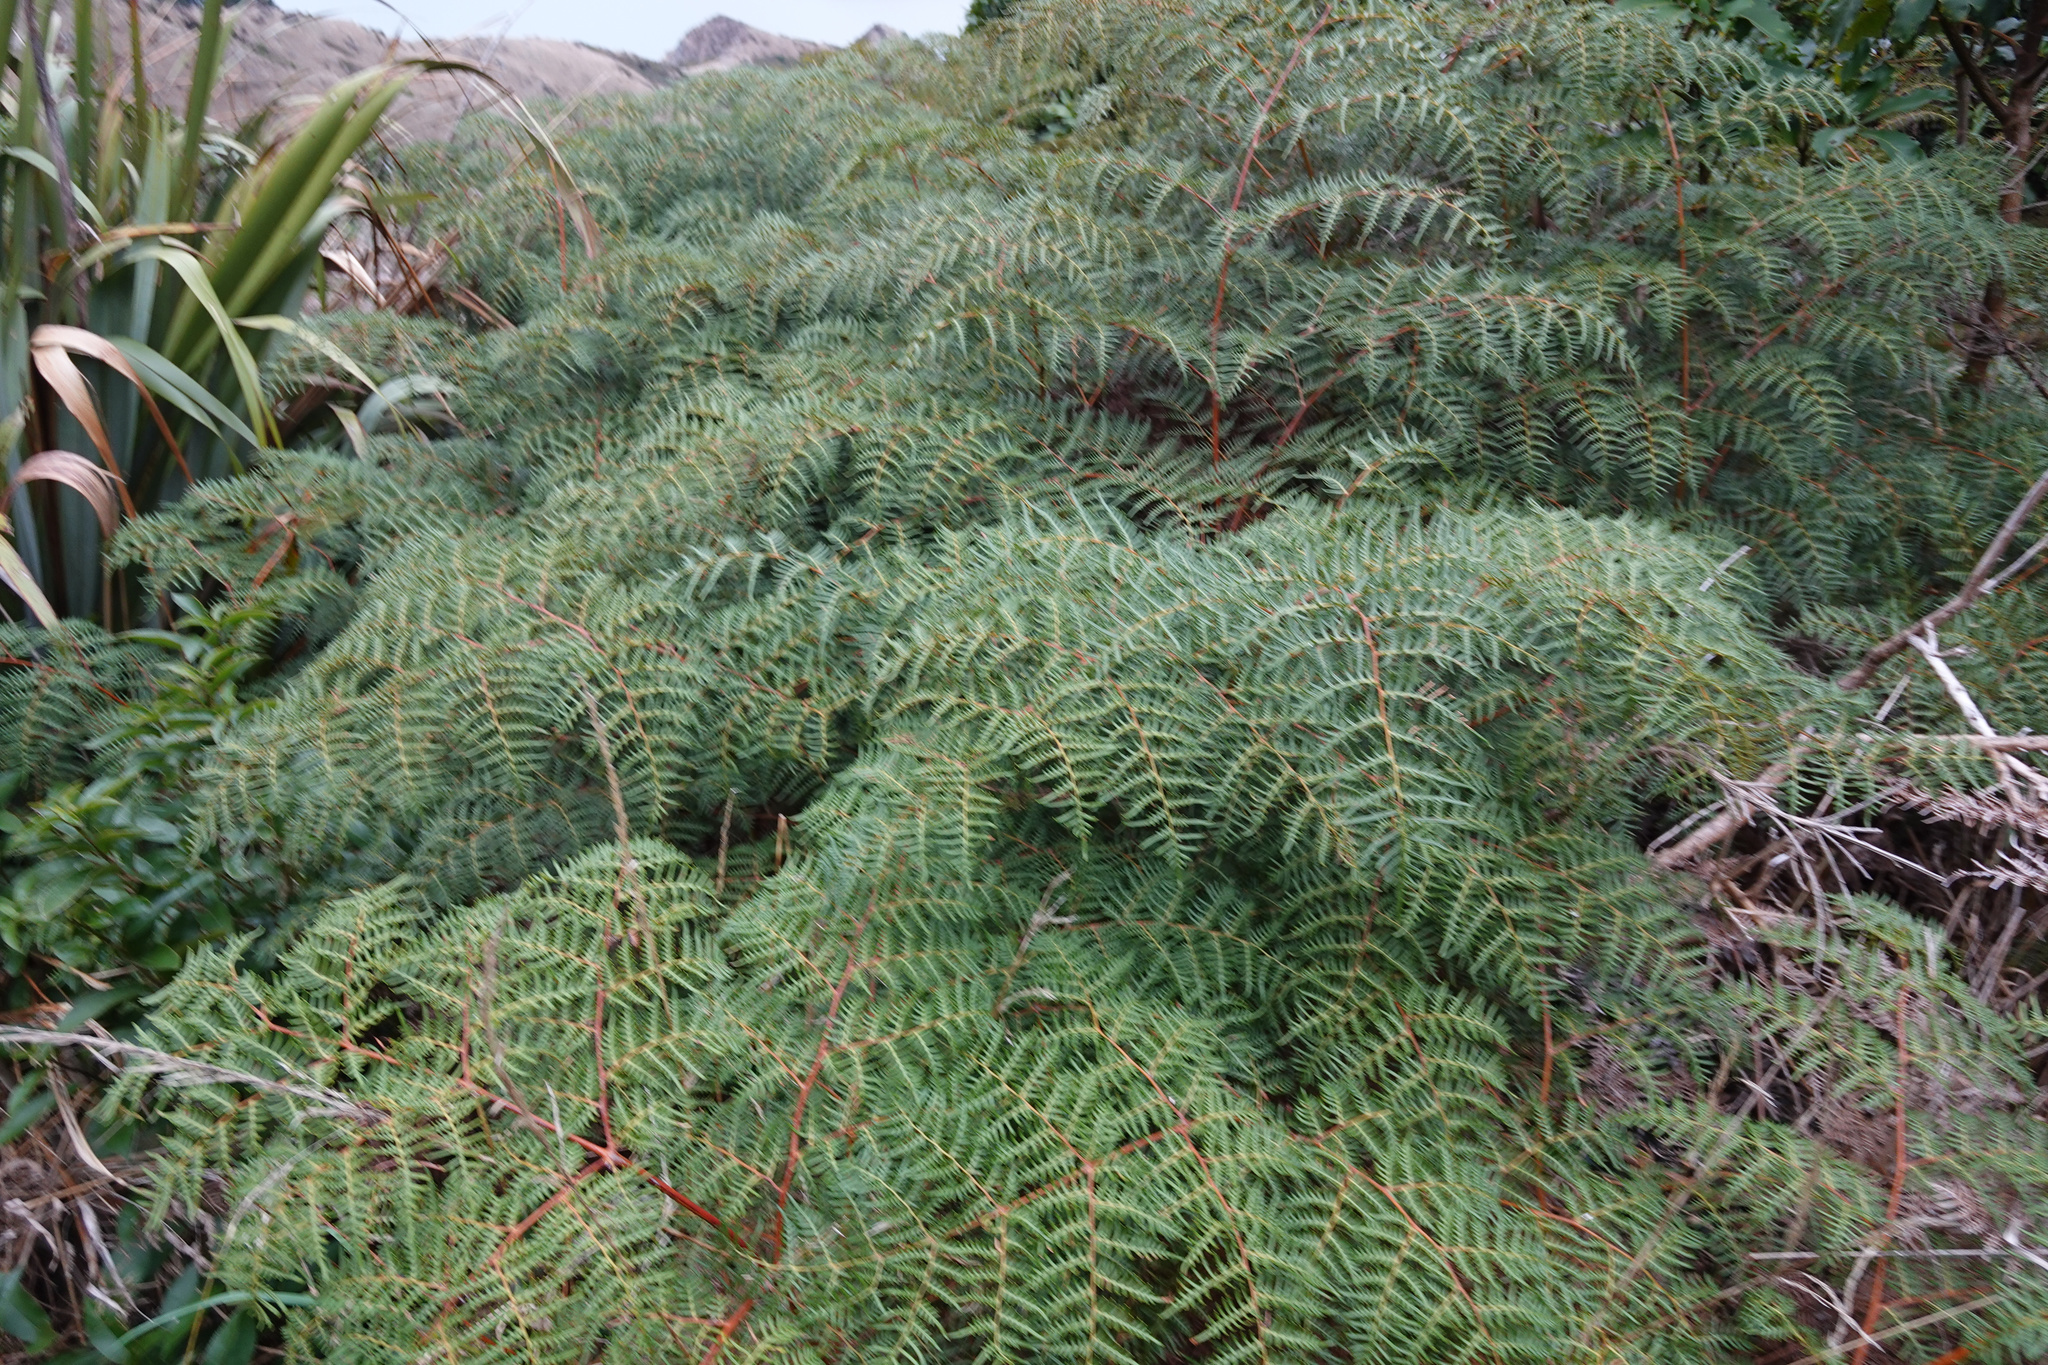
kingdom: Plantae
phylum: Tracheophyta
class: Polypodiopsida
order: Polypodiales
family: Dennstaedtiaceae
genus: Pteridium
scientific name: Pteridium esculentum
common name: Bracken fern
